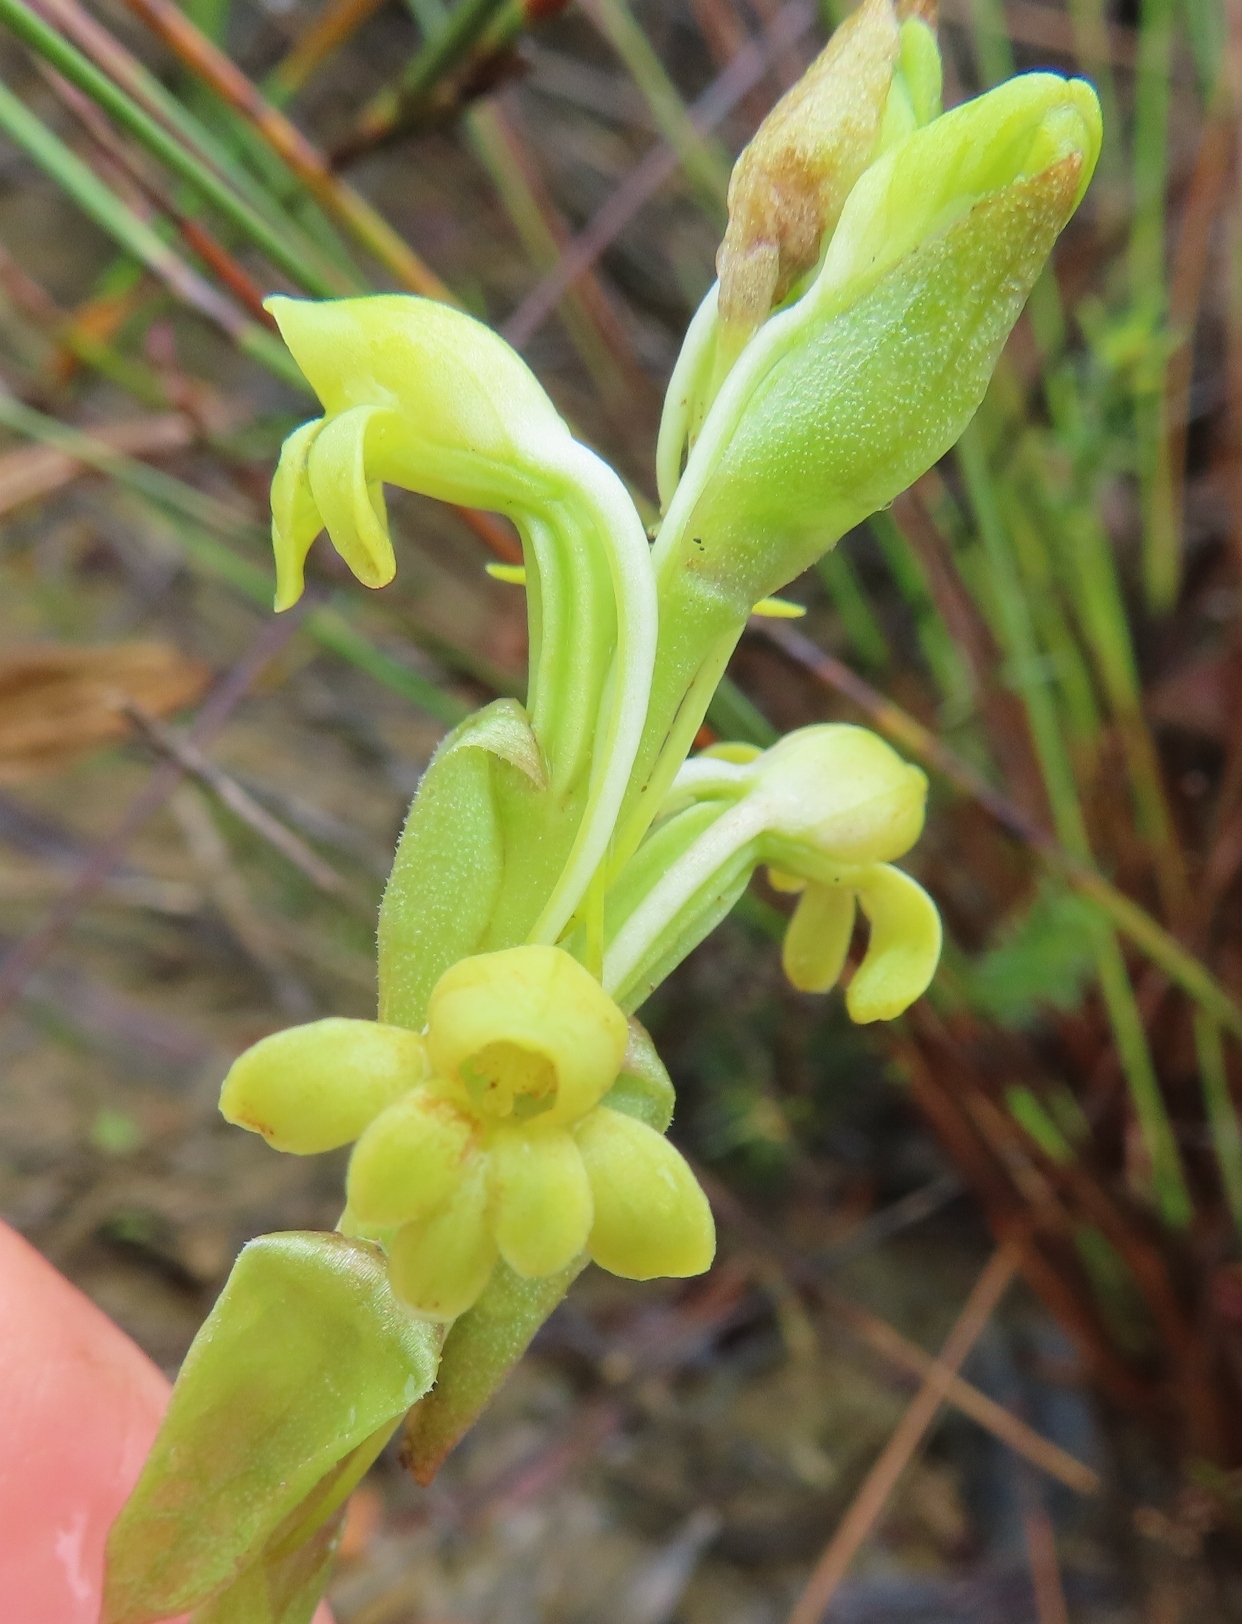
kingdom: Plantae
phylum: Tracheophyta
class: Liliopsida
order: Asparagales
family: Orchidaceae
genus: Satyrium
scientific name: Satyrium bicorne
